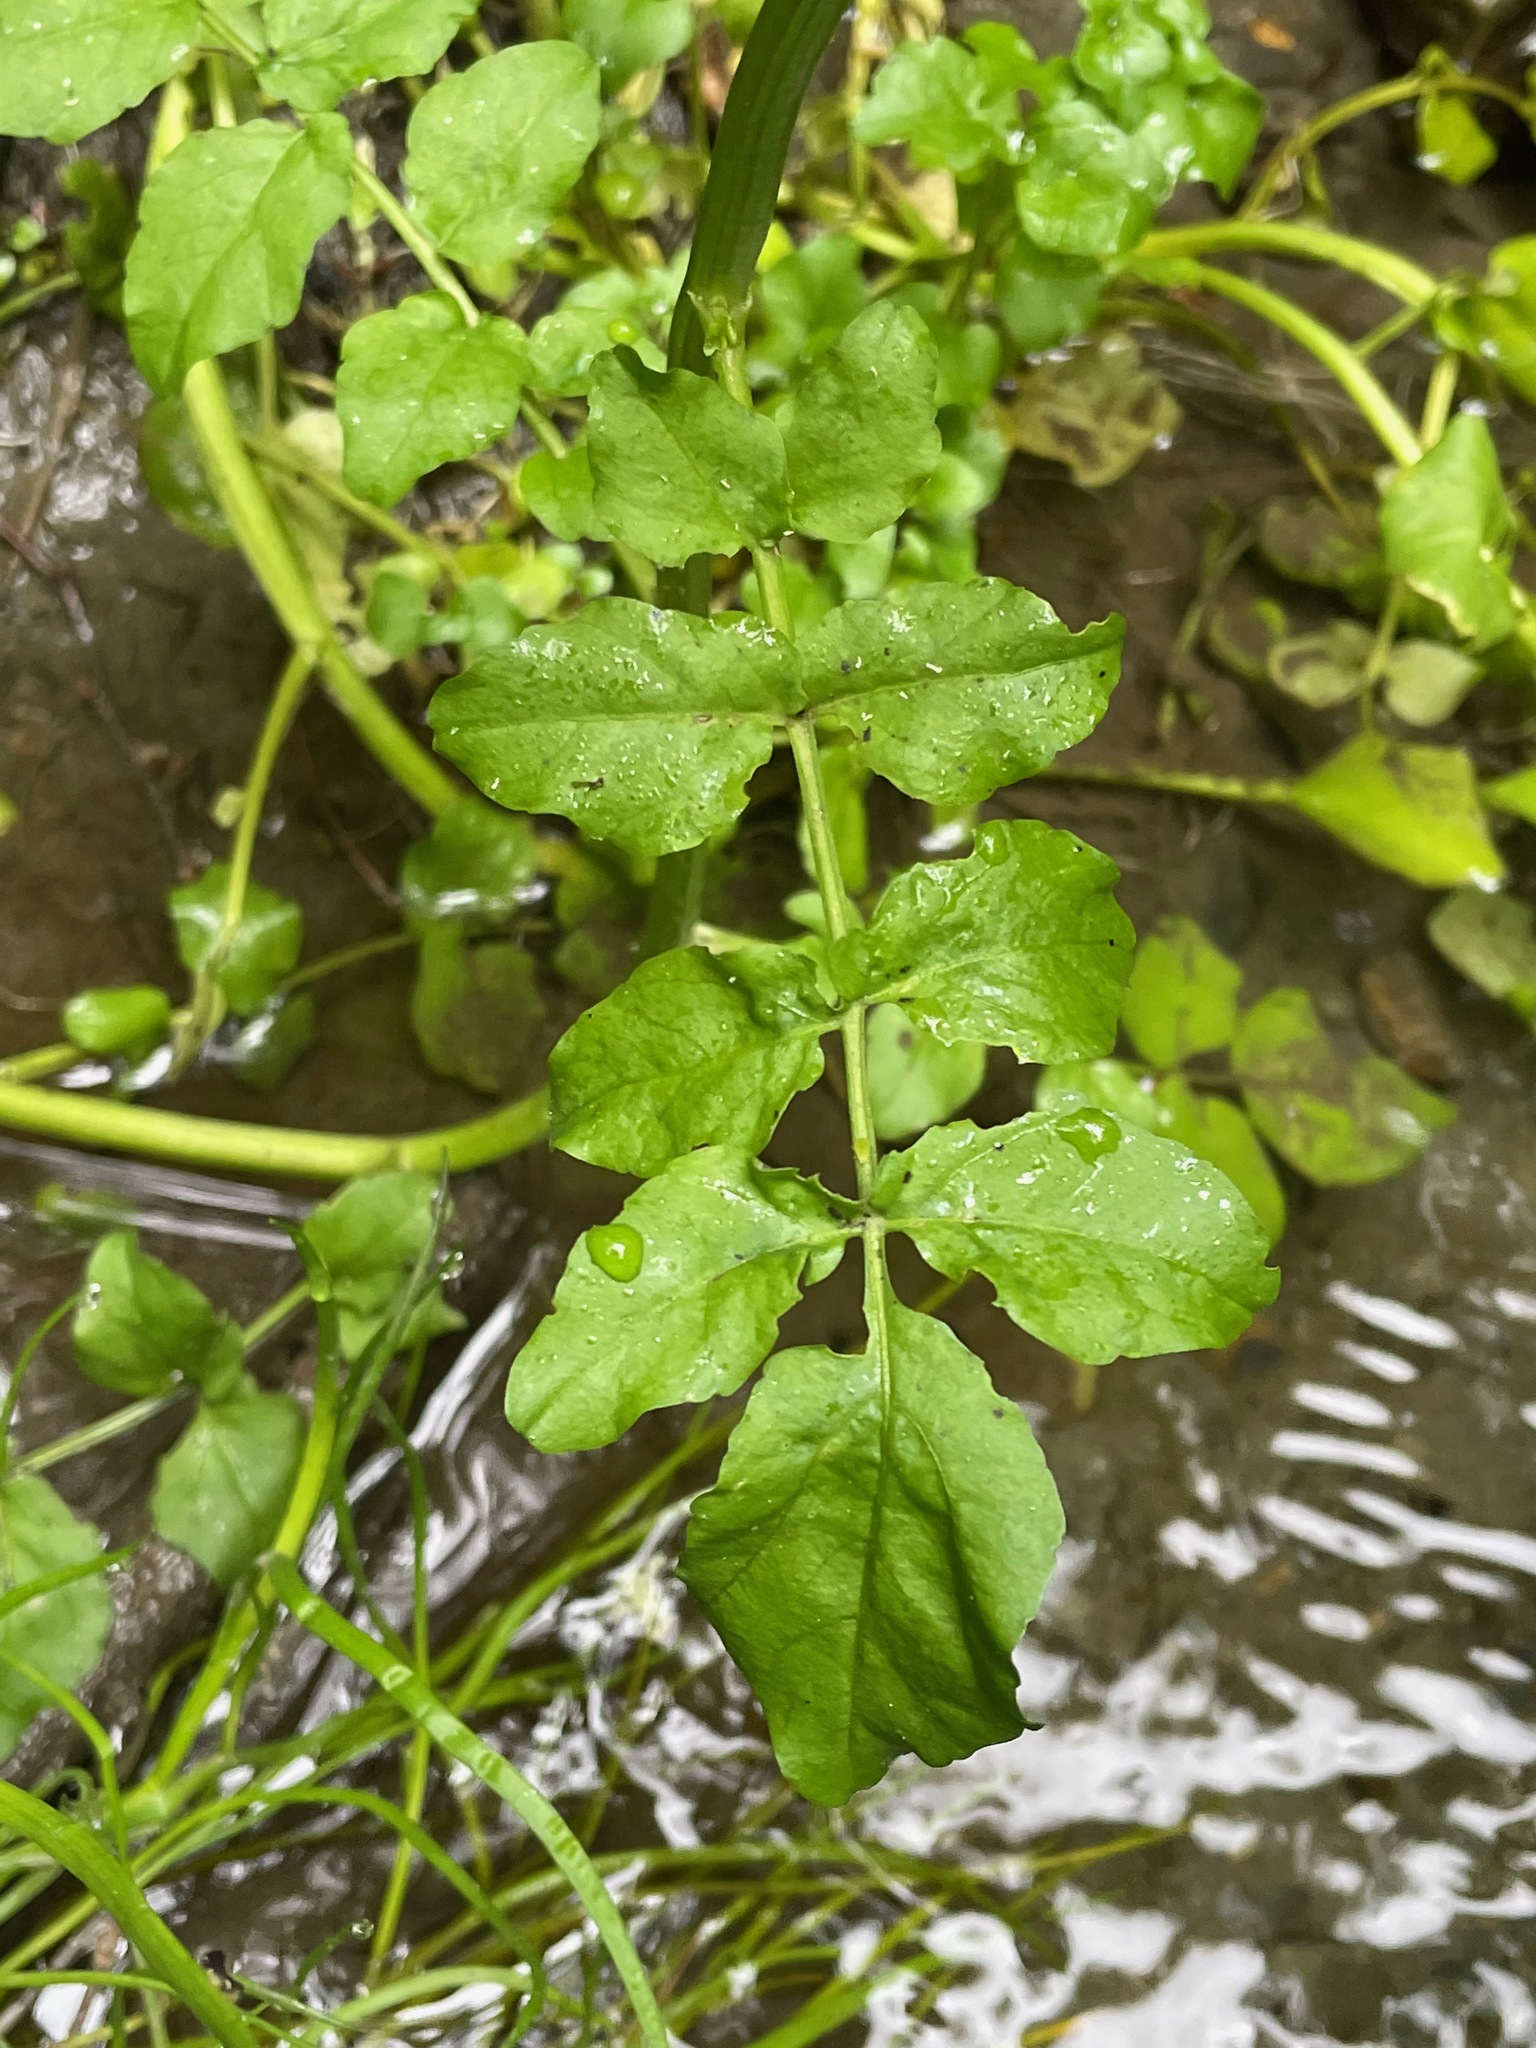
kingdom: Plantae
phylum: Tracheophyta
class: Magnoliopsida
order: Brassicales
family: Brassicaceae
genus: Nasturtium
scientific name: Nasturtium officinale
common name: Watercress
